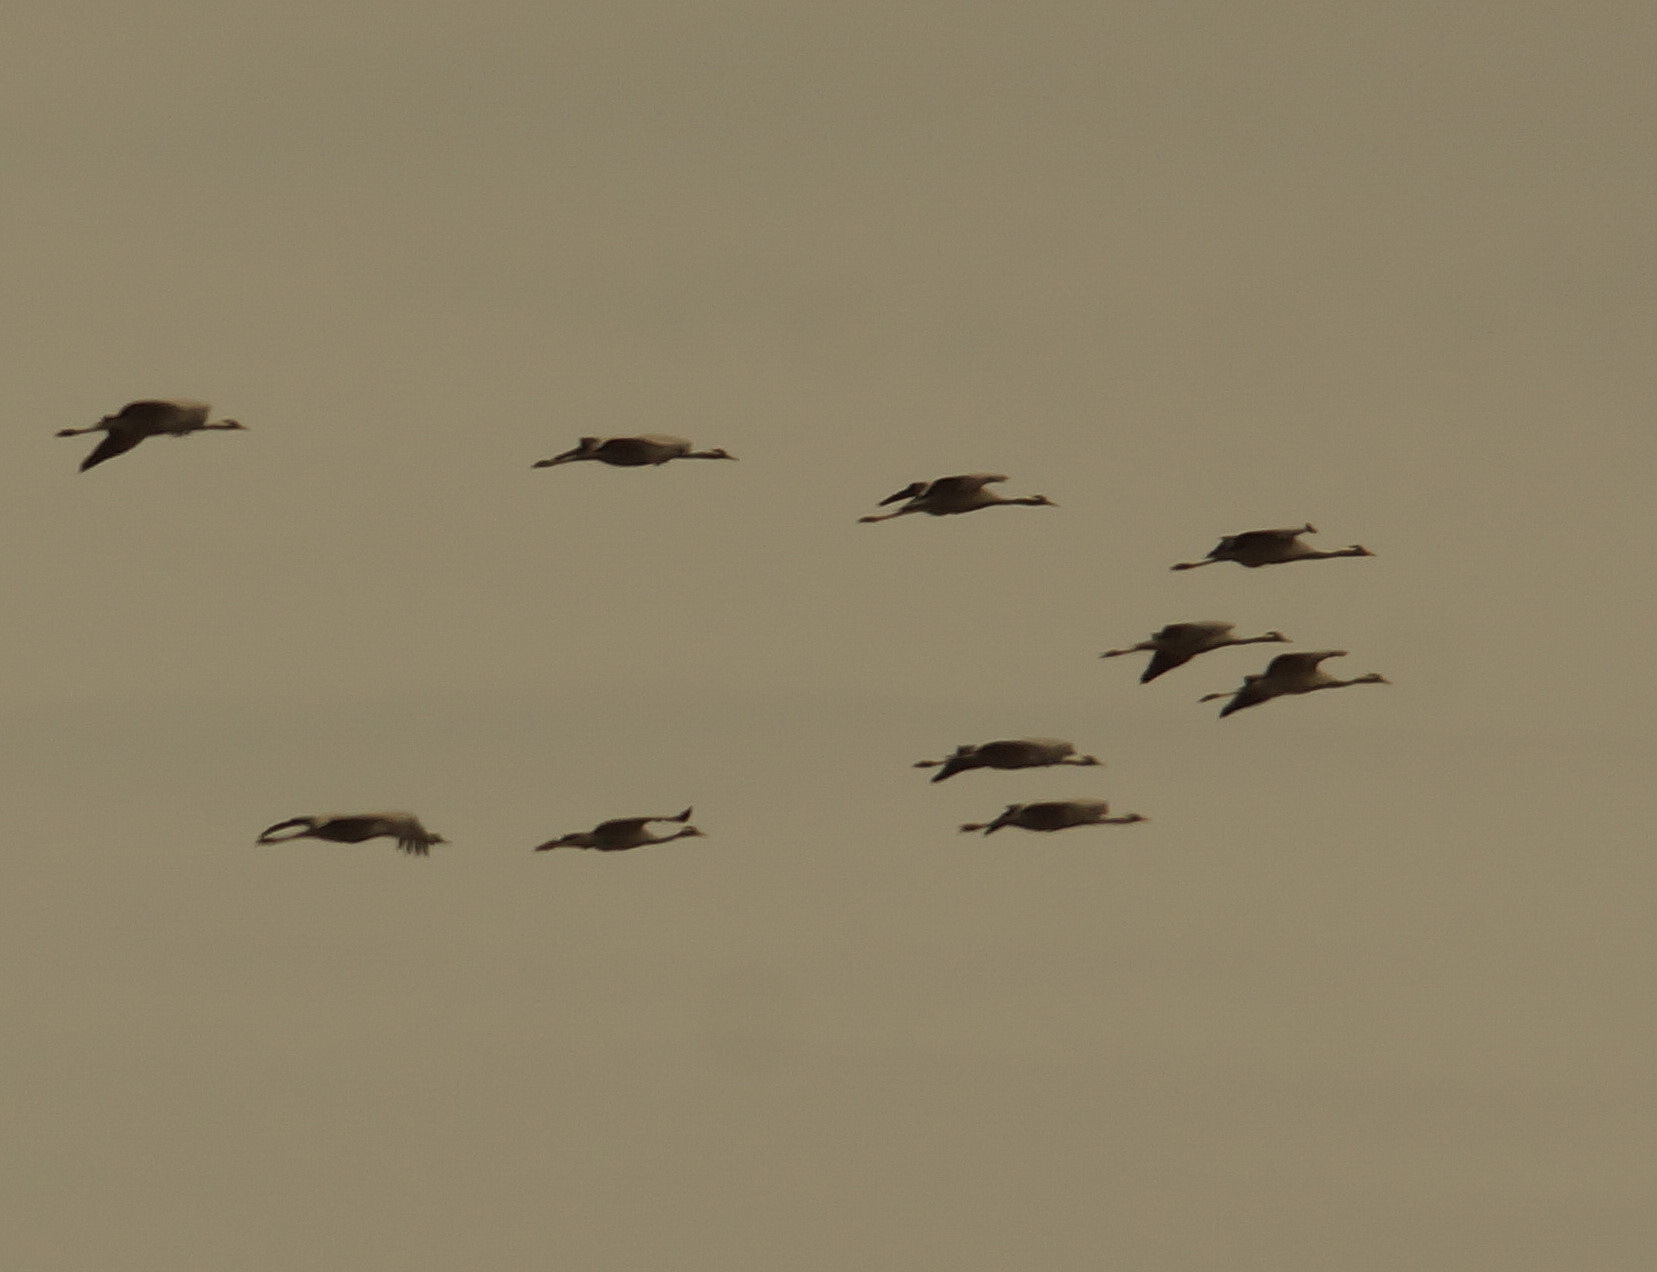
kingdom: Animalia
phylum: Chordata
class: Aves
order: Gruiformes
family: Gruidae
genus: Anthropoides
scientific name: Anthropoides virgo
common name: Demoiselle crane
